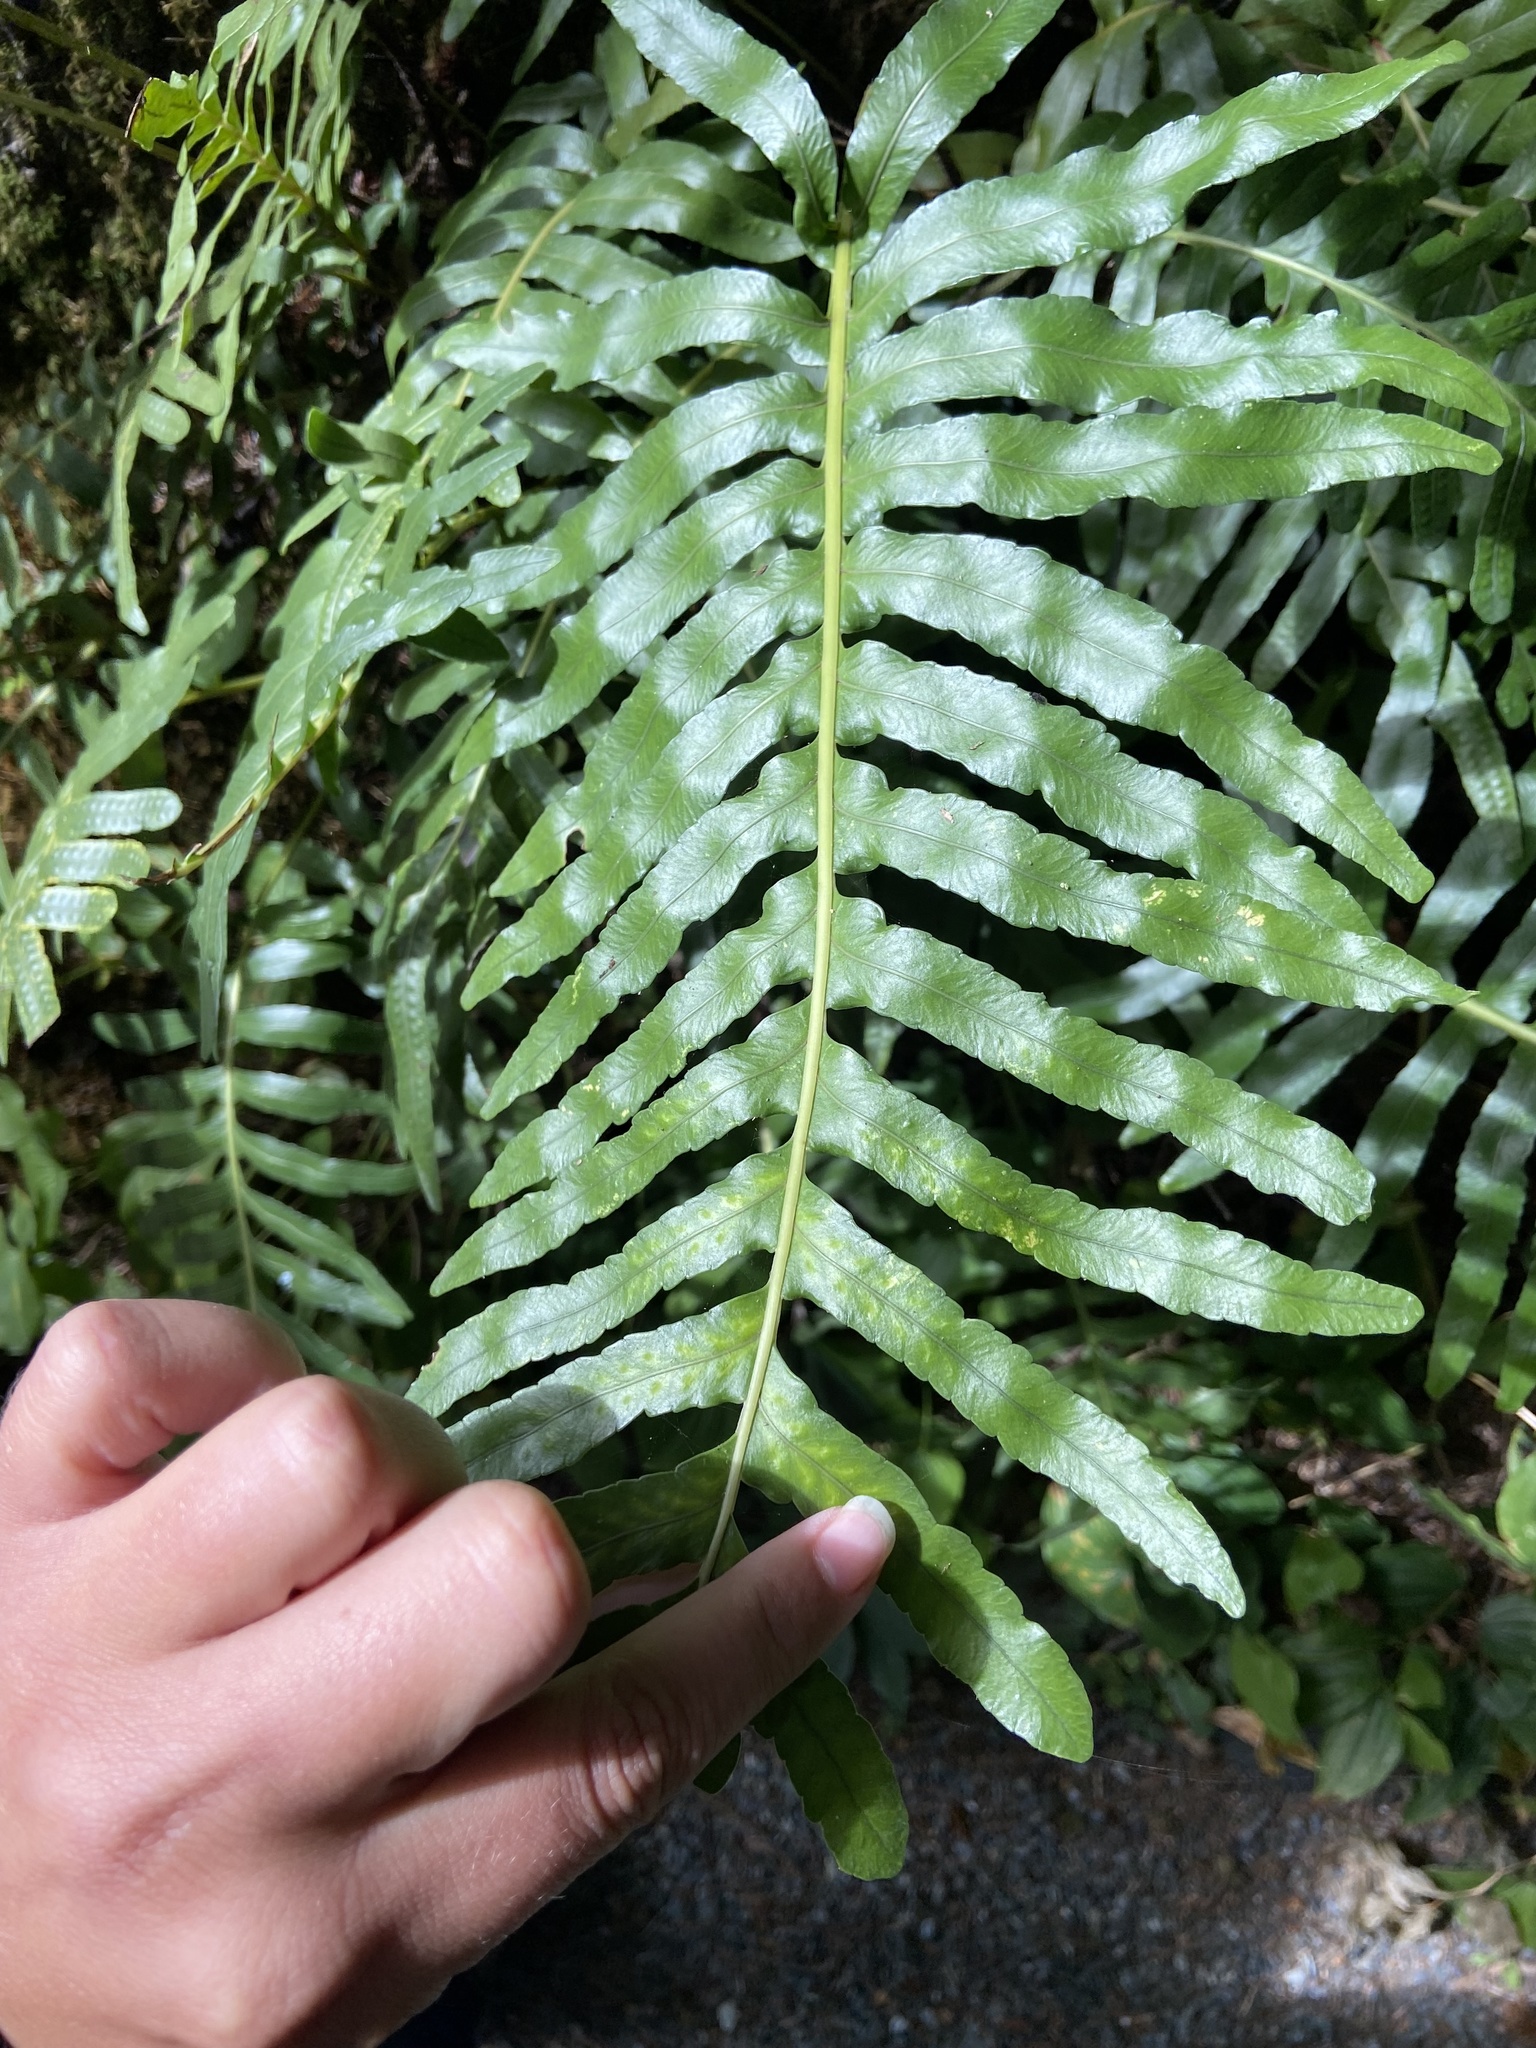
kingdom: Plantae
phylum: Tracheophyta
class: Polypodiopsida
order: Polypodiales
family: Polypodiaceae
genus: Polypodium
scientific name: Polypodium scouleri
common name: Scouler's polypody
